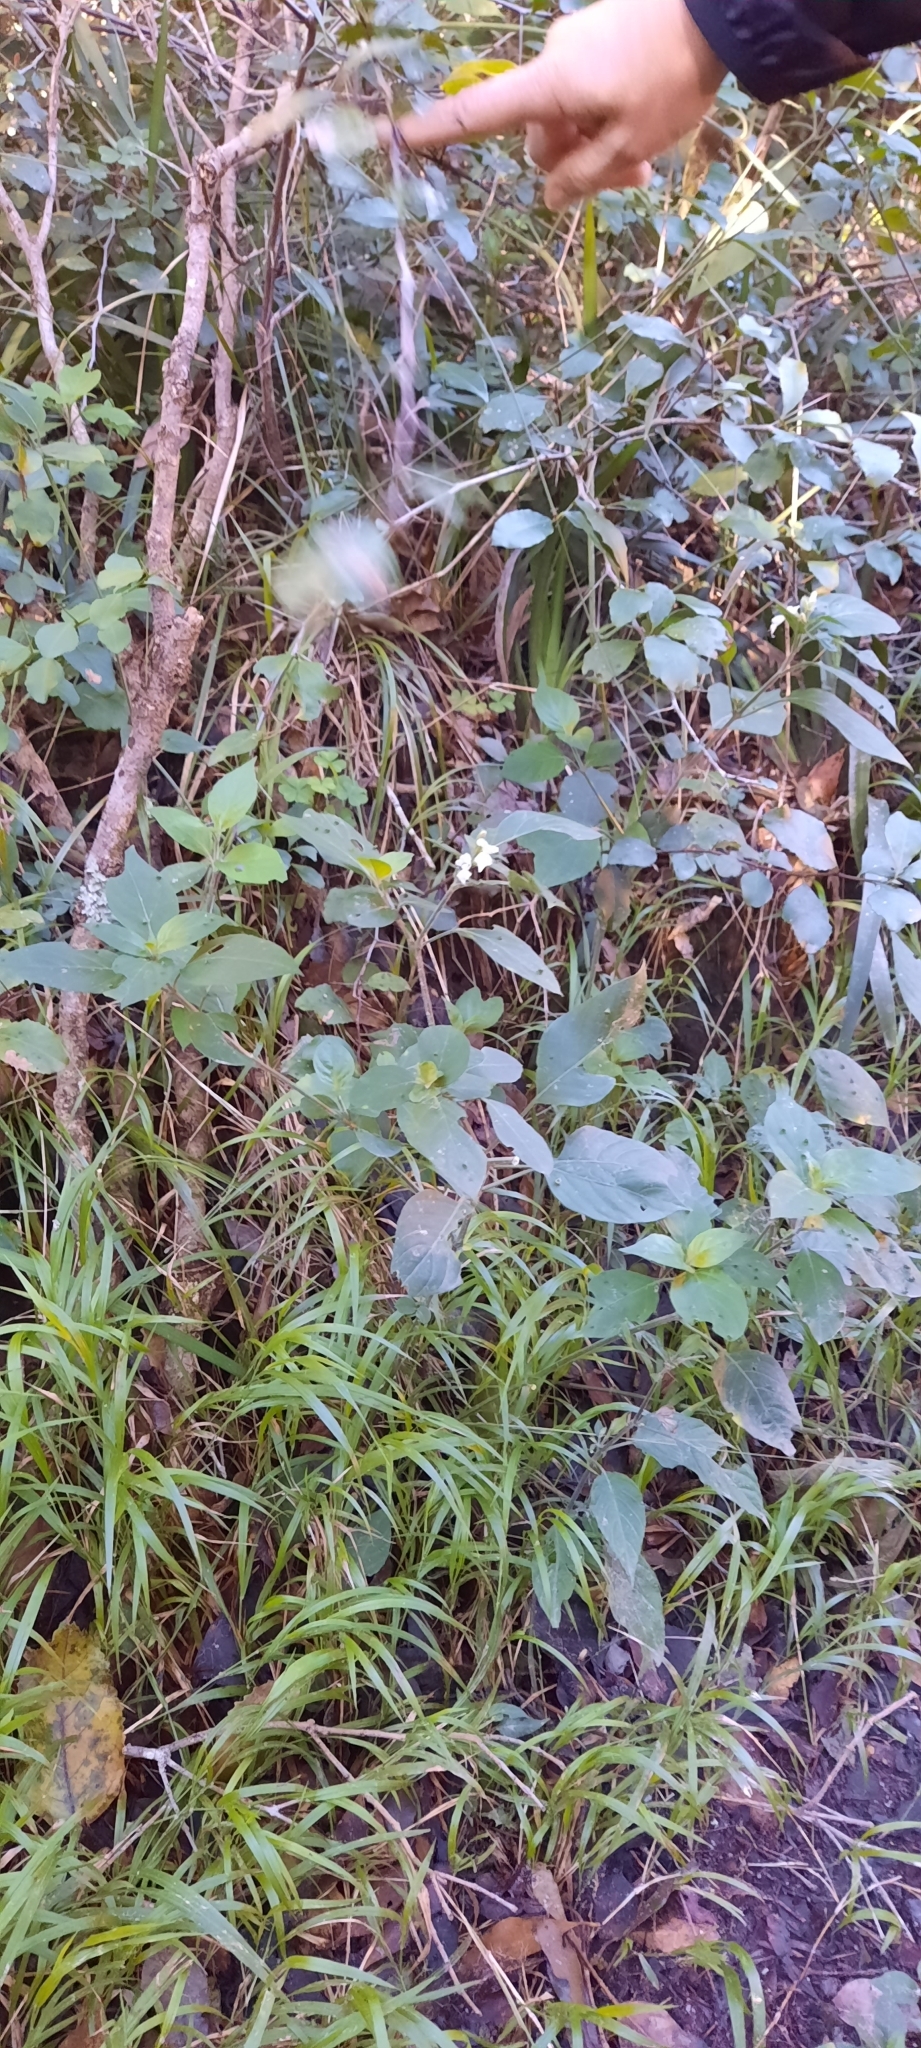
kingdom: Plantae
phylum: Tracheophyta
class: Magnoliopsida
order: Lamiales
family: Acanthaceae
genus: Hypoestes
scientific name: Hypoestes forskaolii
